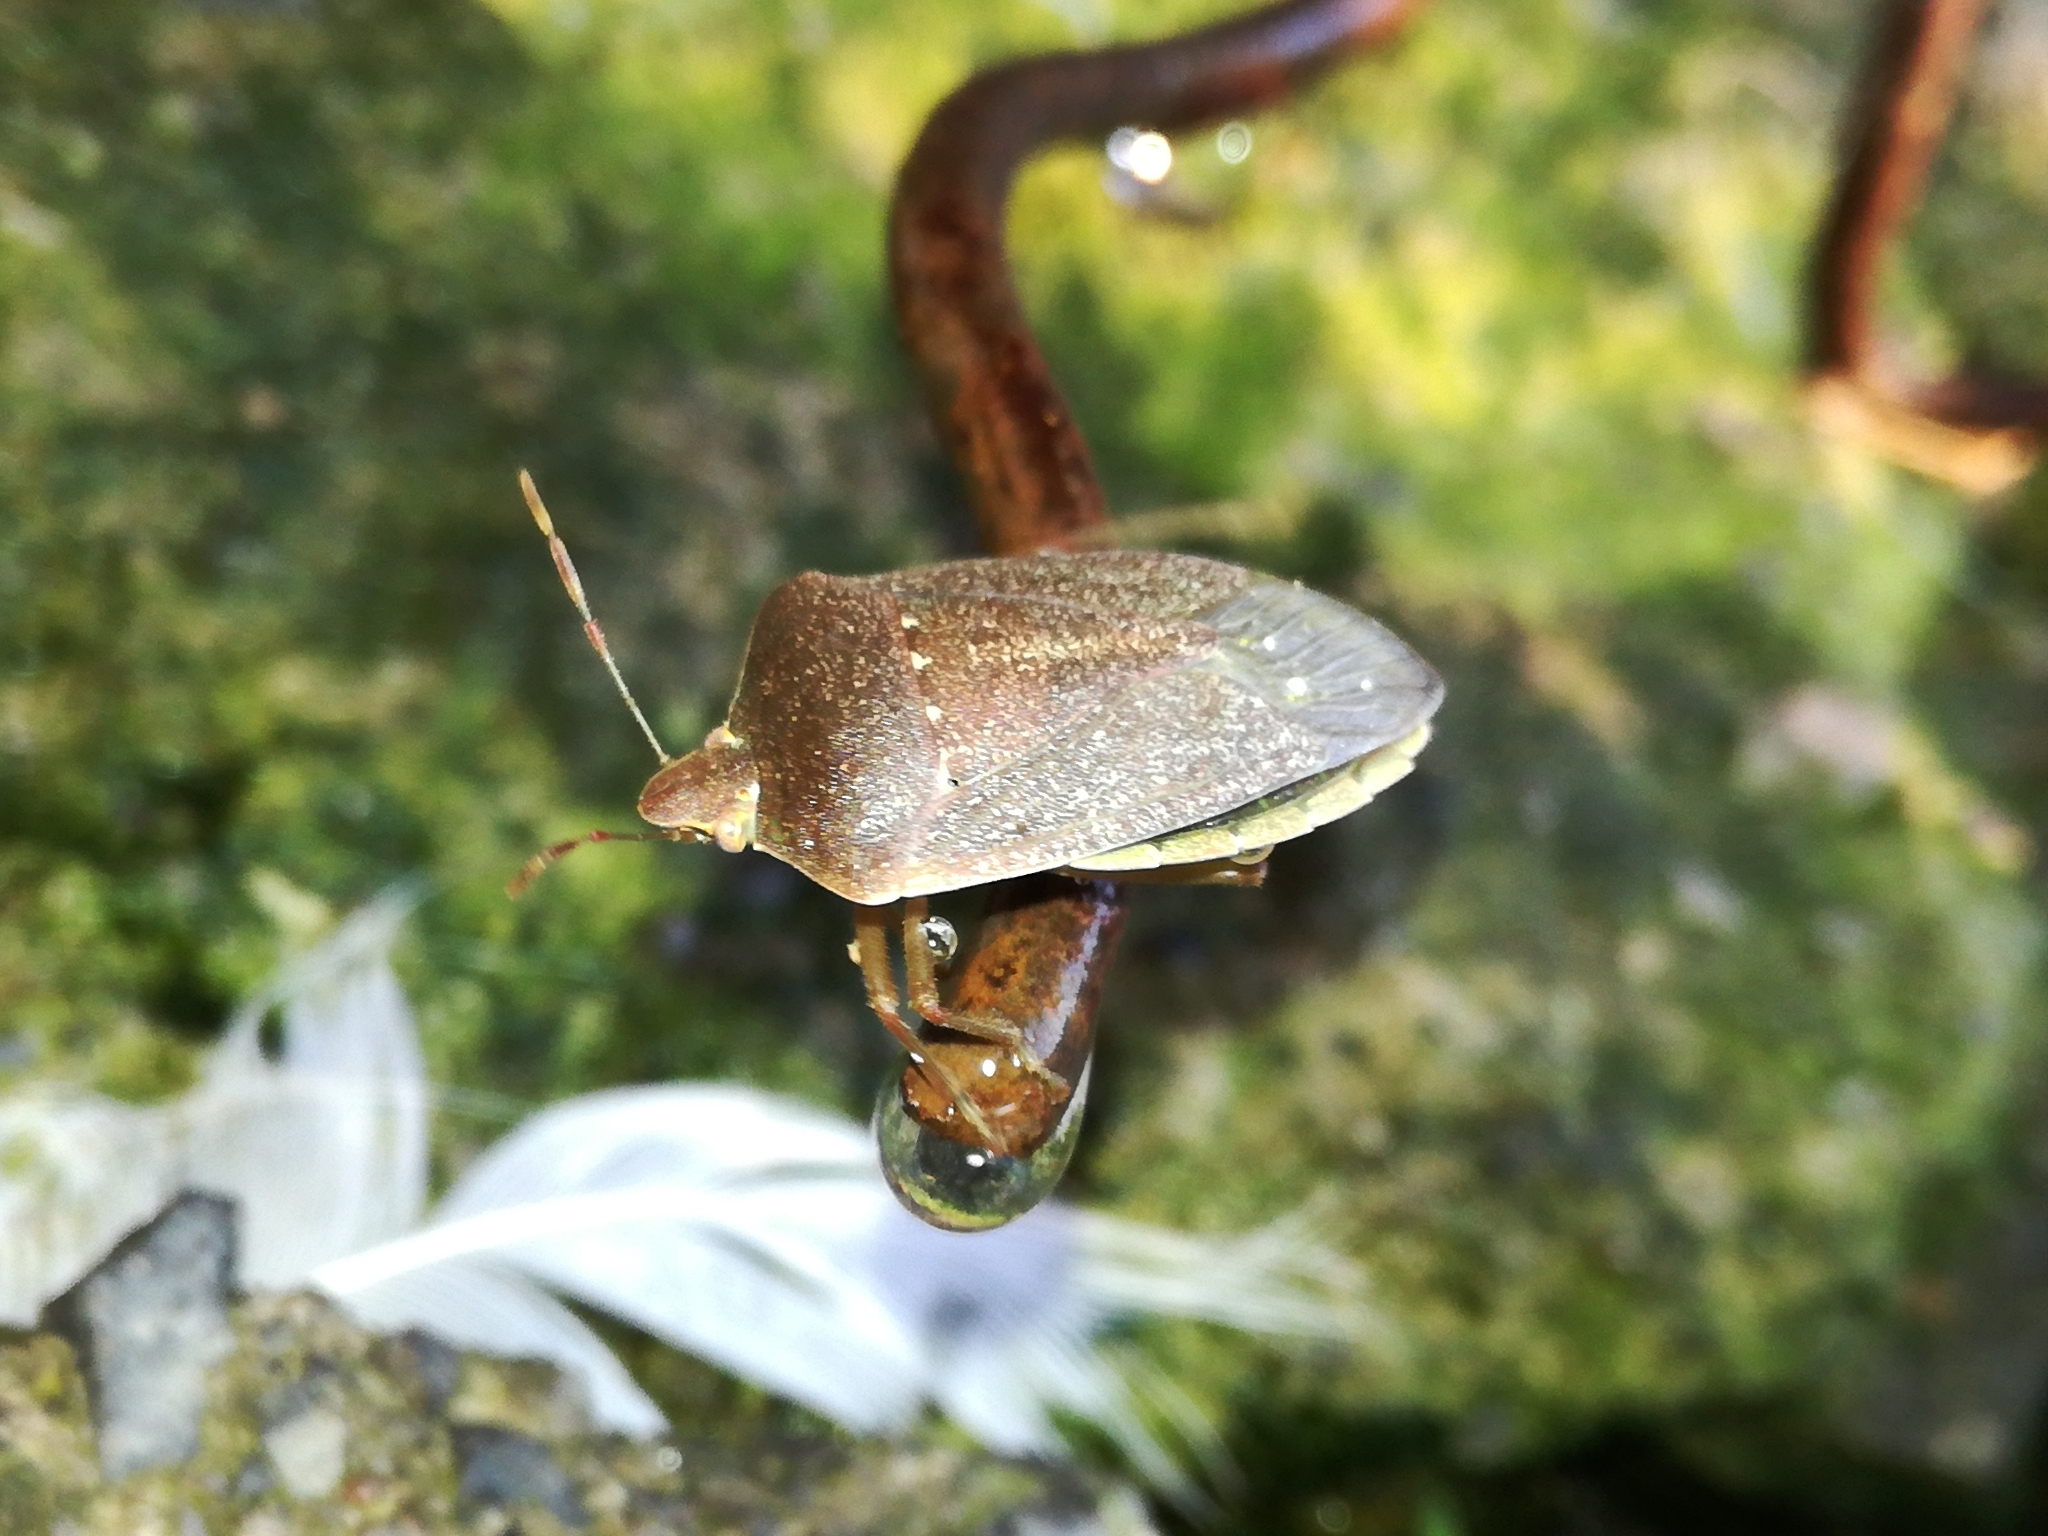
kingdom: Animalia
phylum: Arthropoda
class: Insecta
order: Hemiptera
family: Pentatomidae
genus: Nezara
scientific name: Nezara viridula
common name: Southern green stink bug
